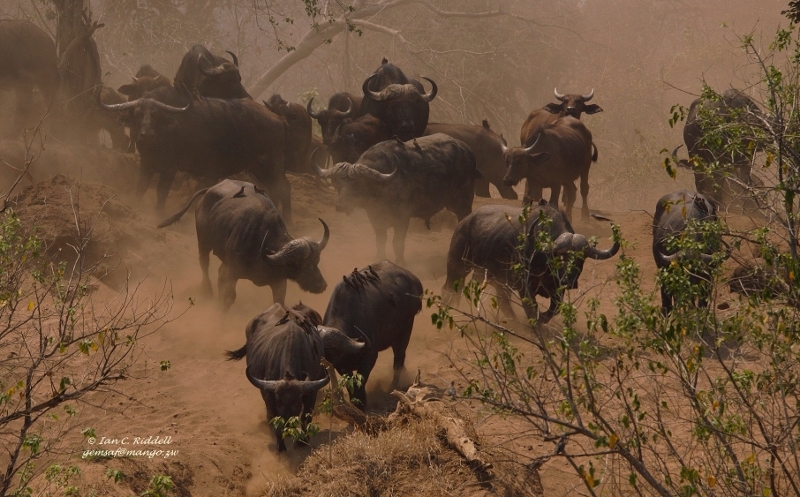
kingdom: Animalia
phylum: Chordata
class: Mammalia
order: Artiodactyla
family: Bovidae
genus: Syncerus
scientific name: Syncerus caffer
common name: African buffalo
